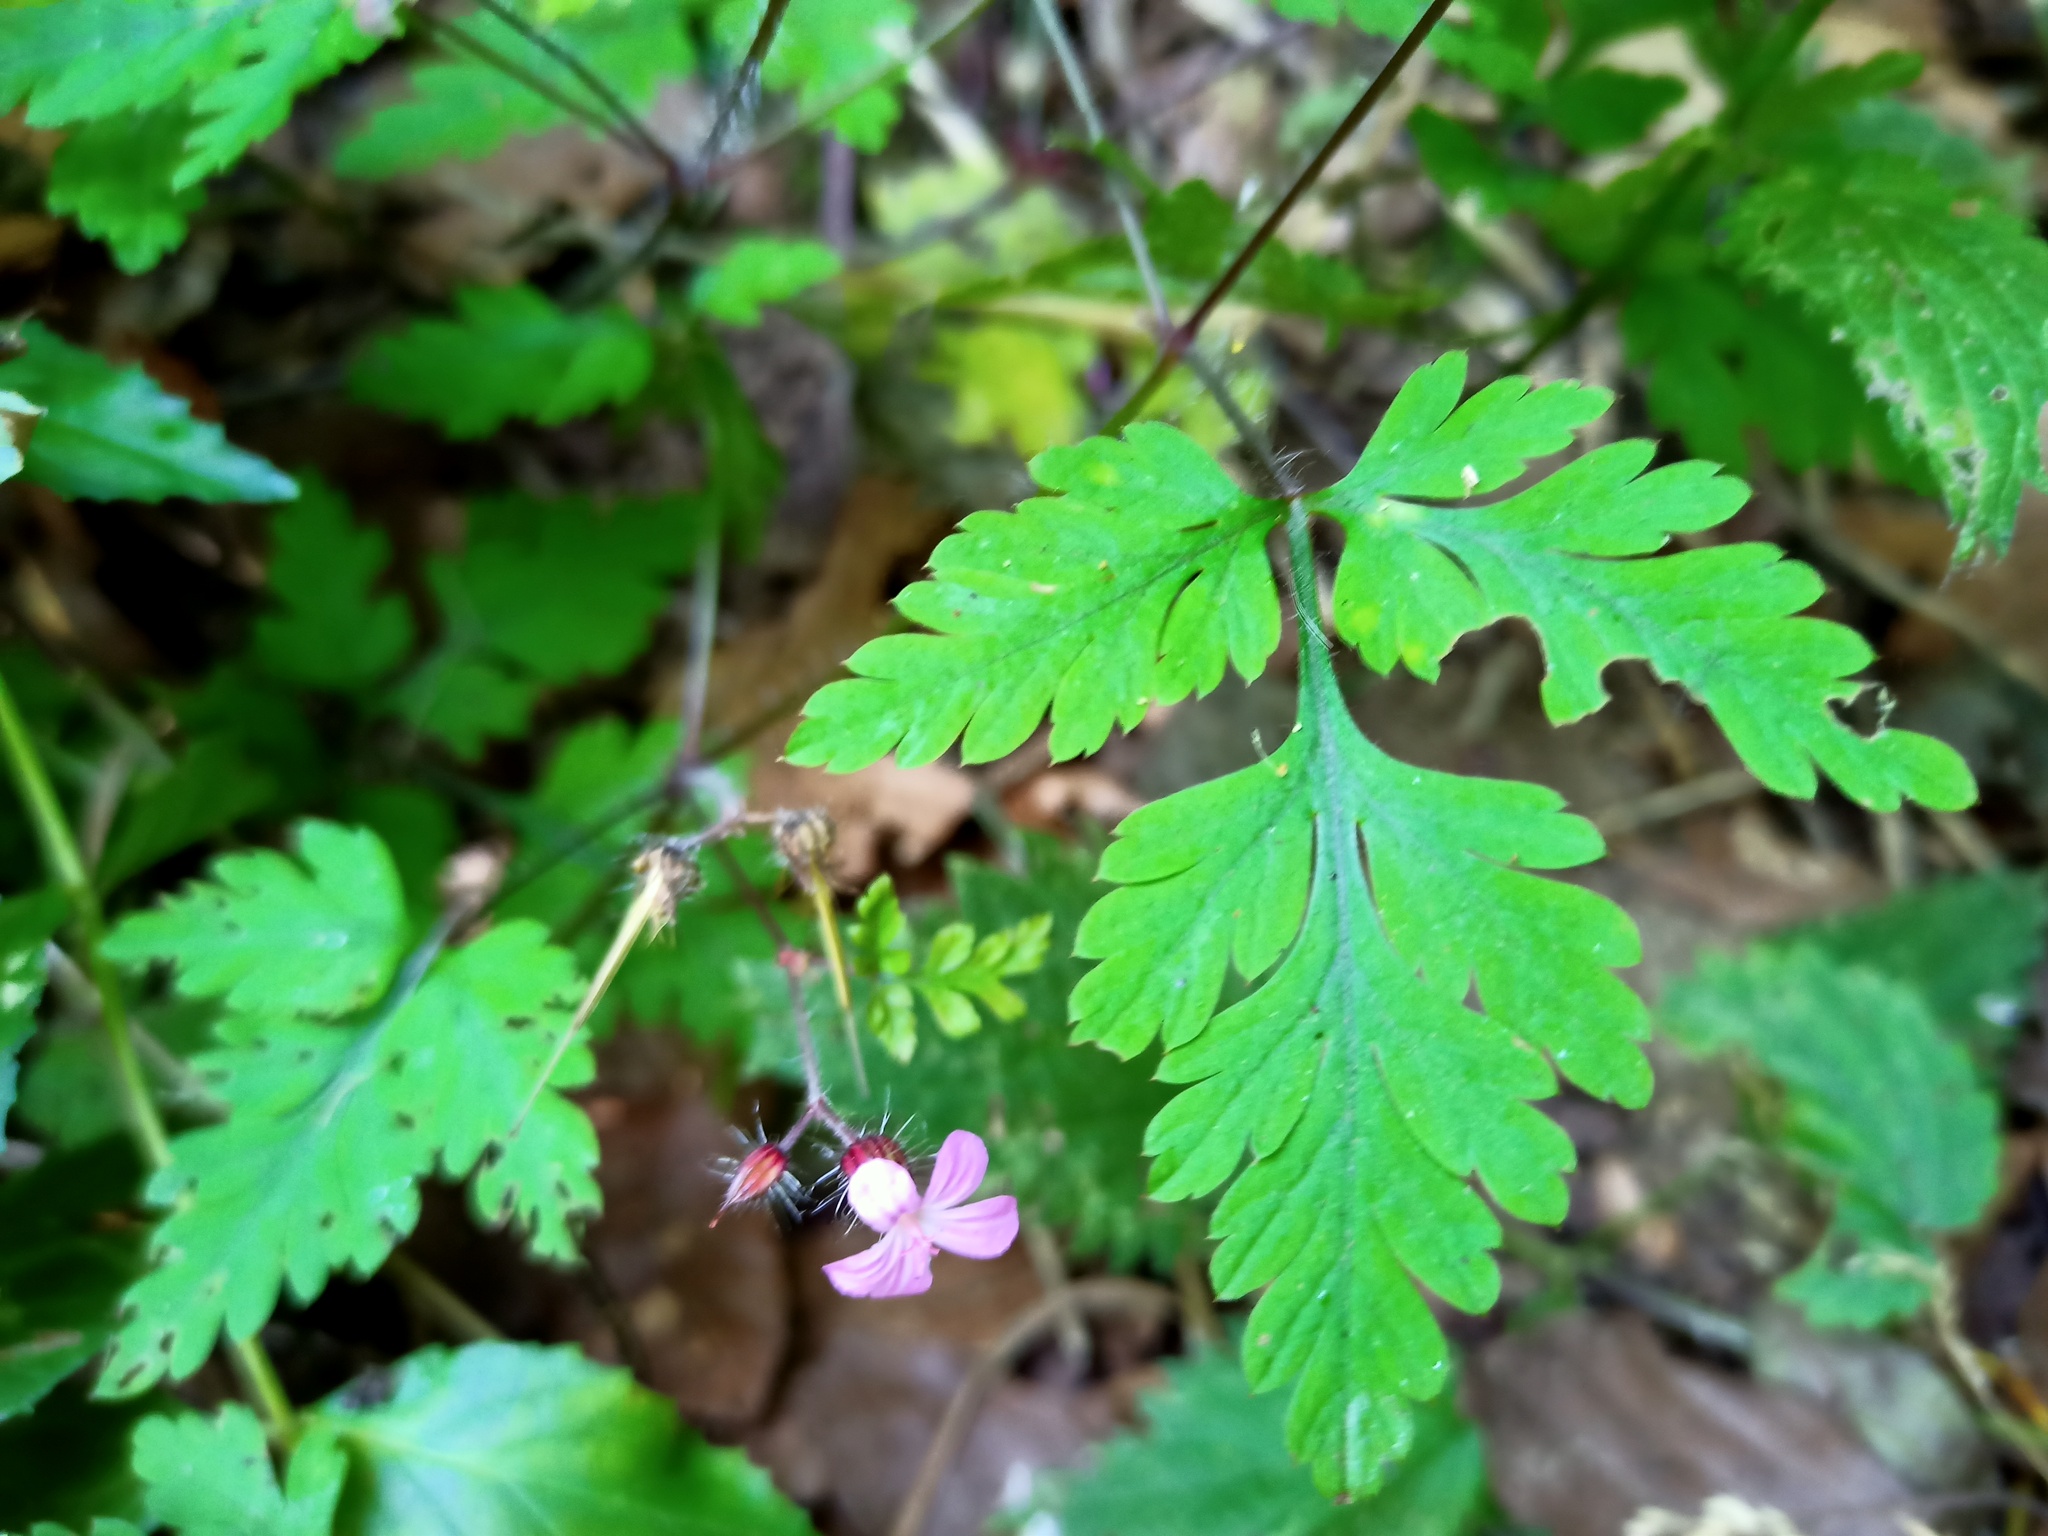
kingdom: Plantae
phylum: Tracheophyta
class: Magnoliopsida
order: Geraniales
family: Geraniaceae
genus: Geranium
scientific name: Geranium robertianum
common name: Herb-robert
